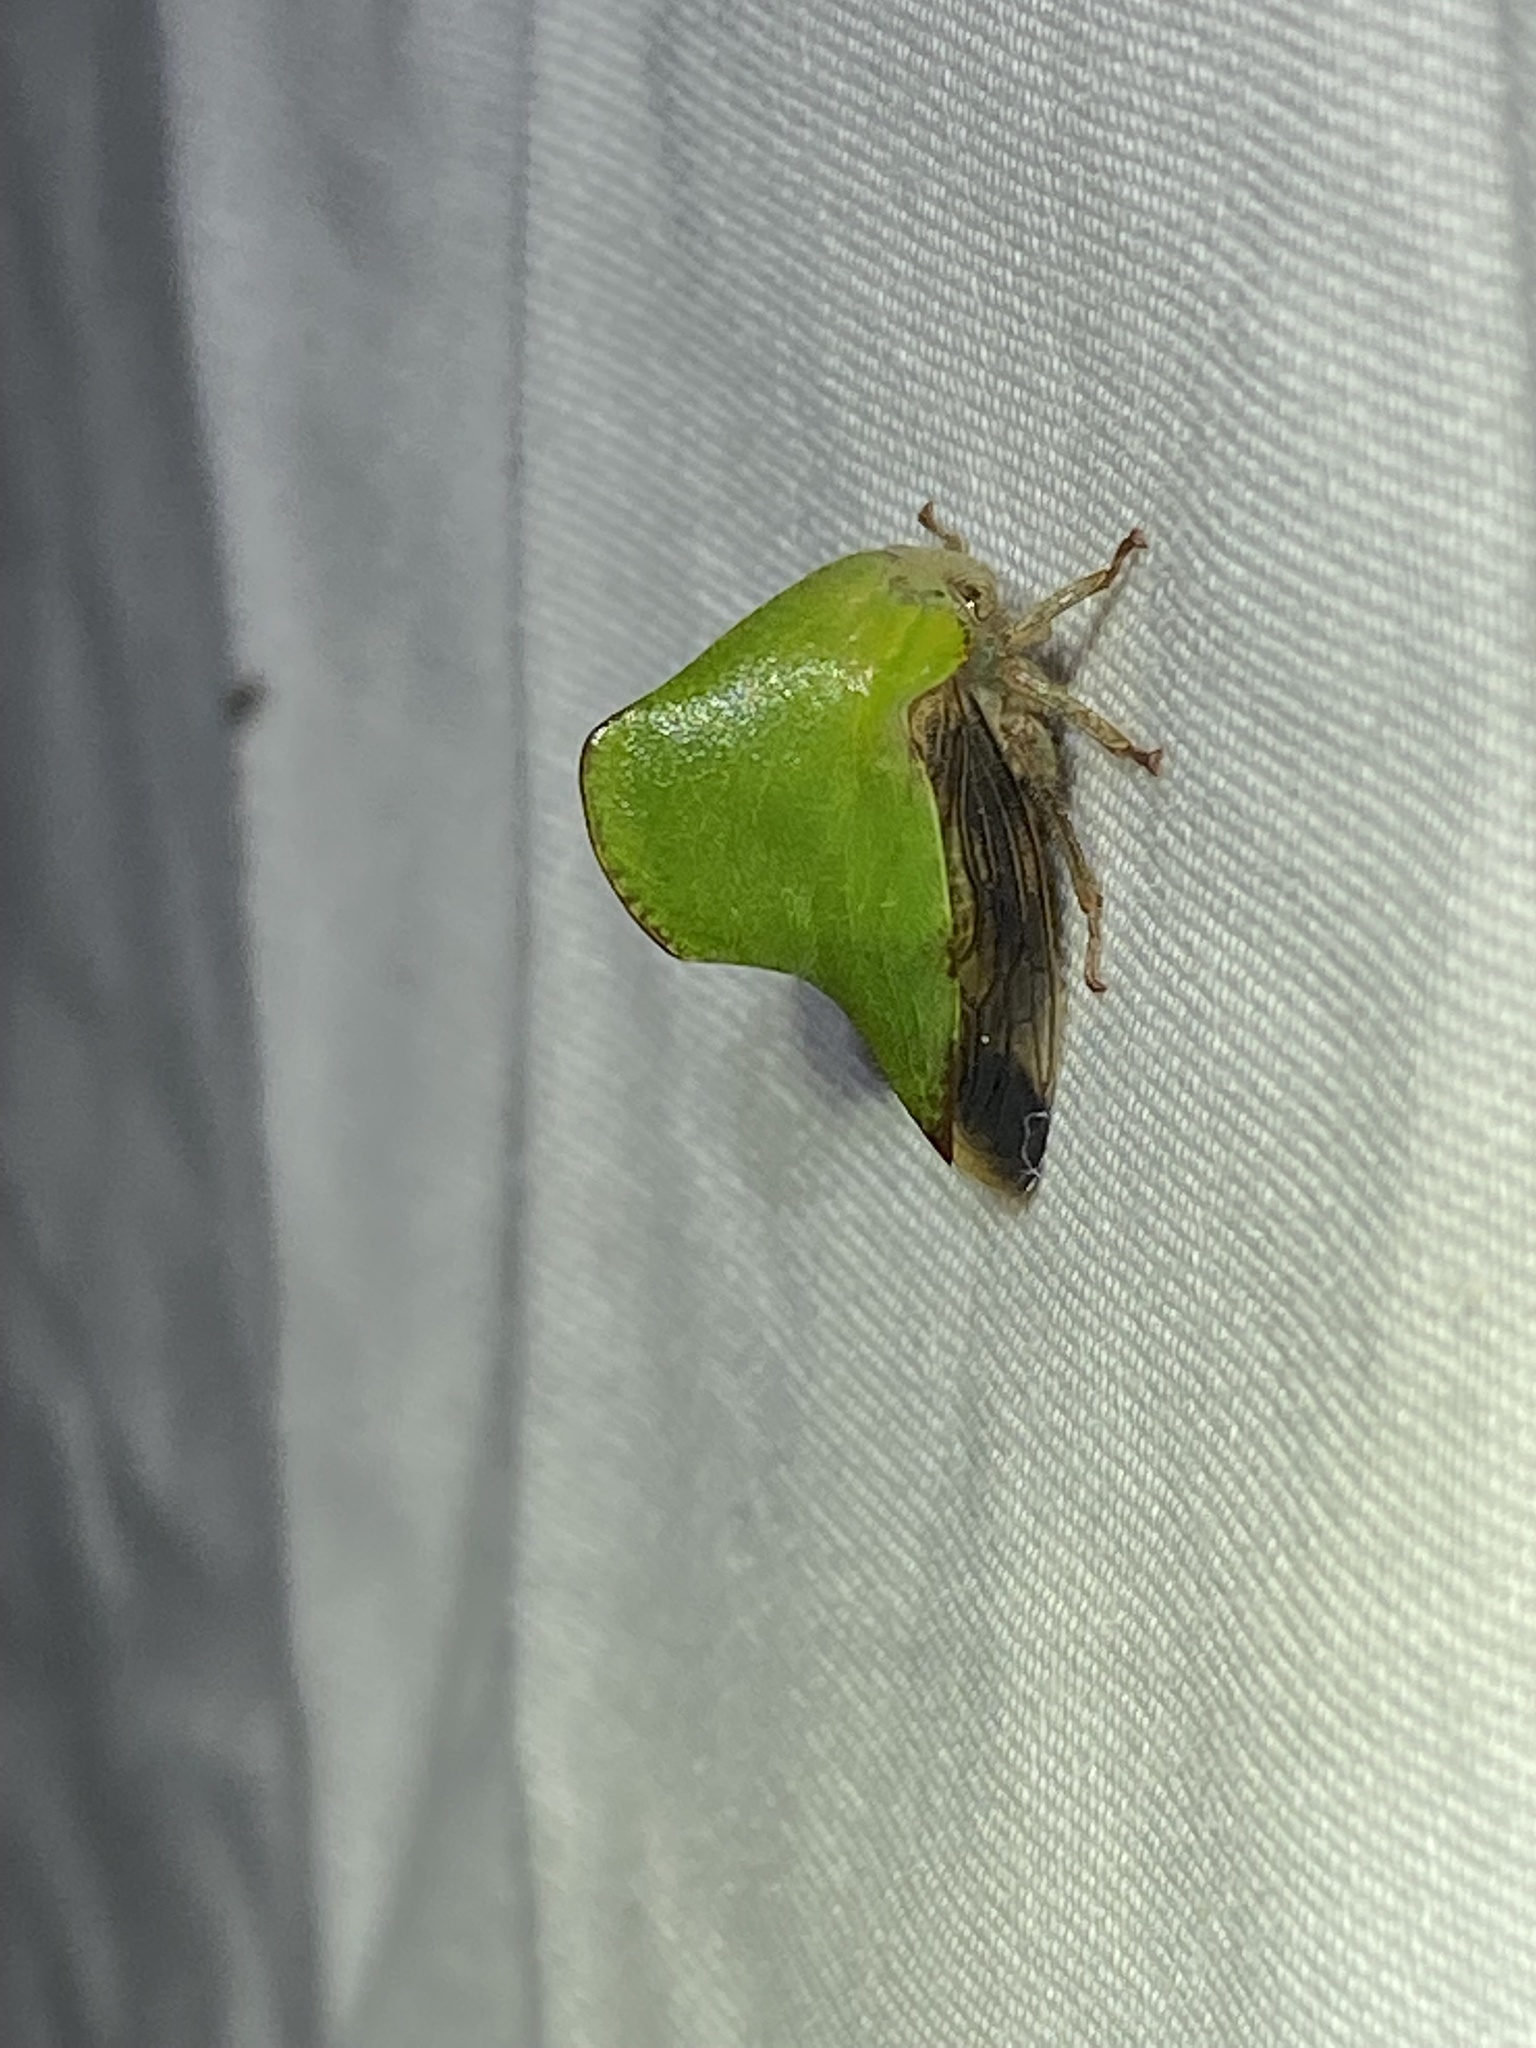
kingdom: Animalia
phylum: Arthropoda
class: Insecta
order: Hemiptera
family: Membracidae
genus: Helonica
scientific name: Helonica excelsa
